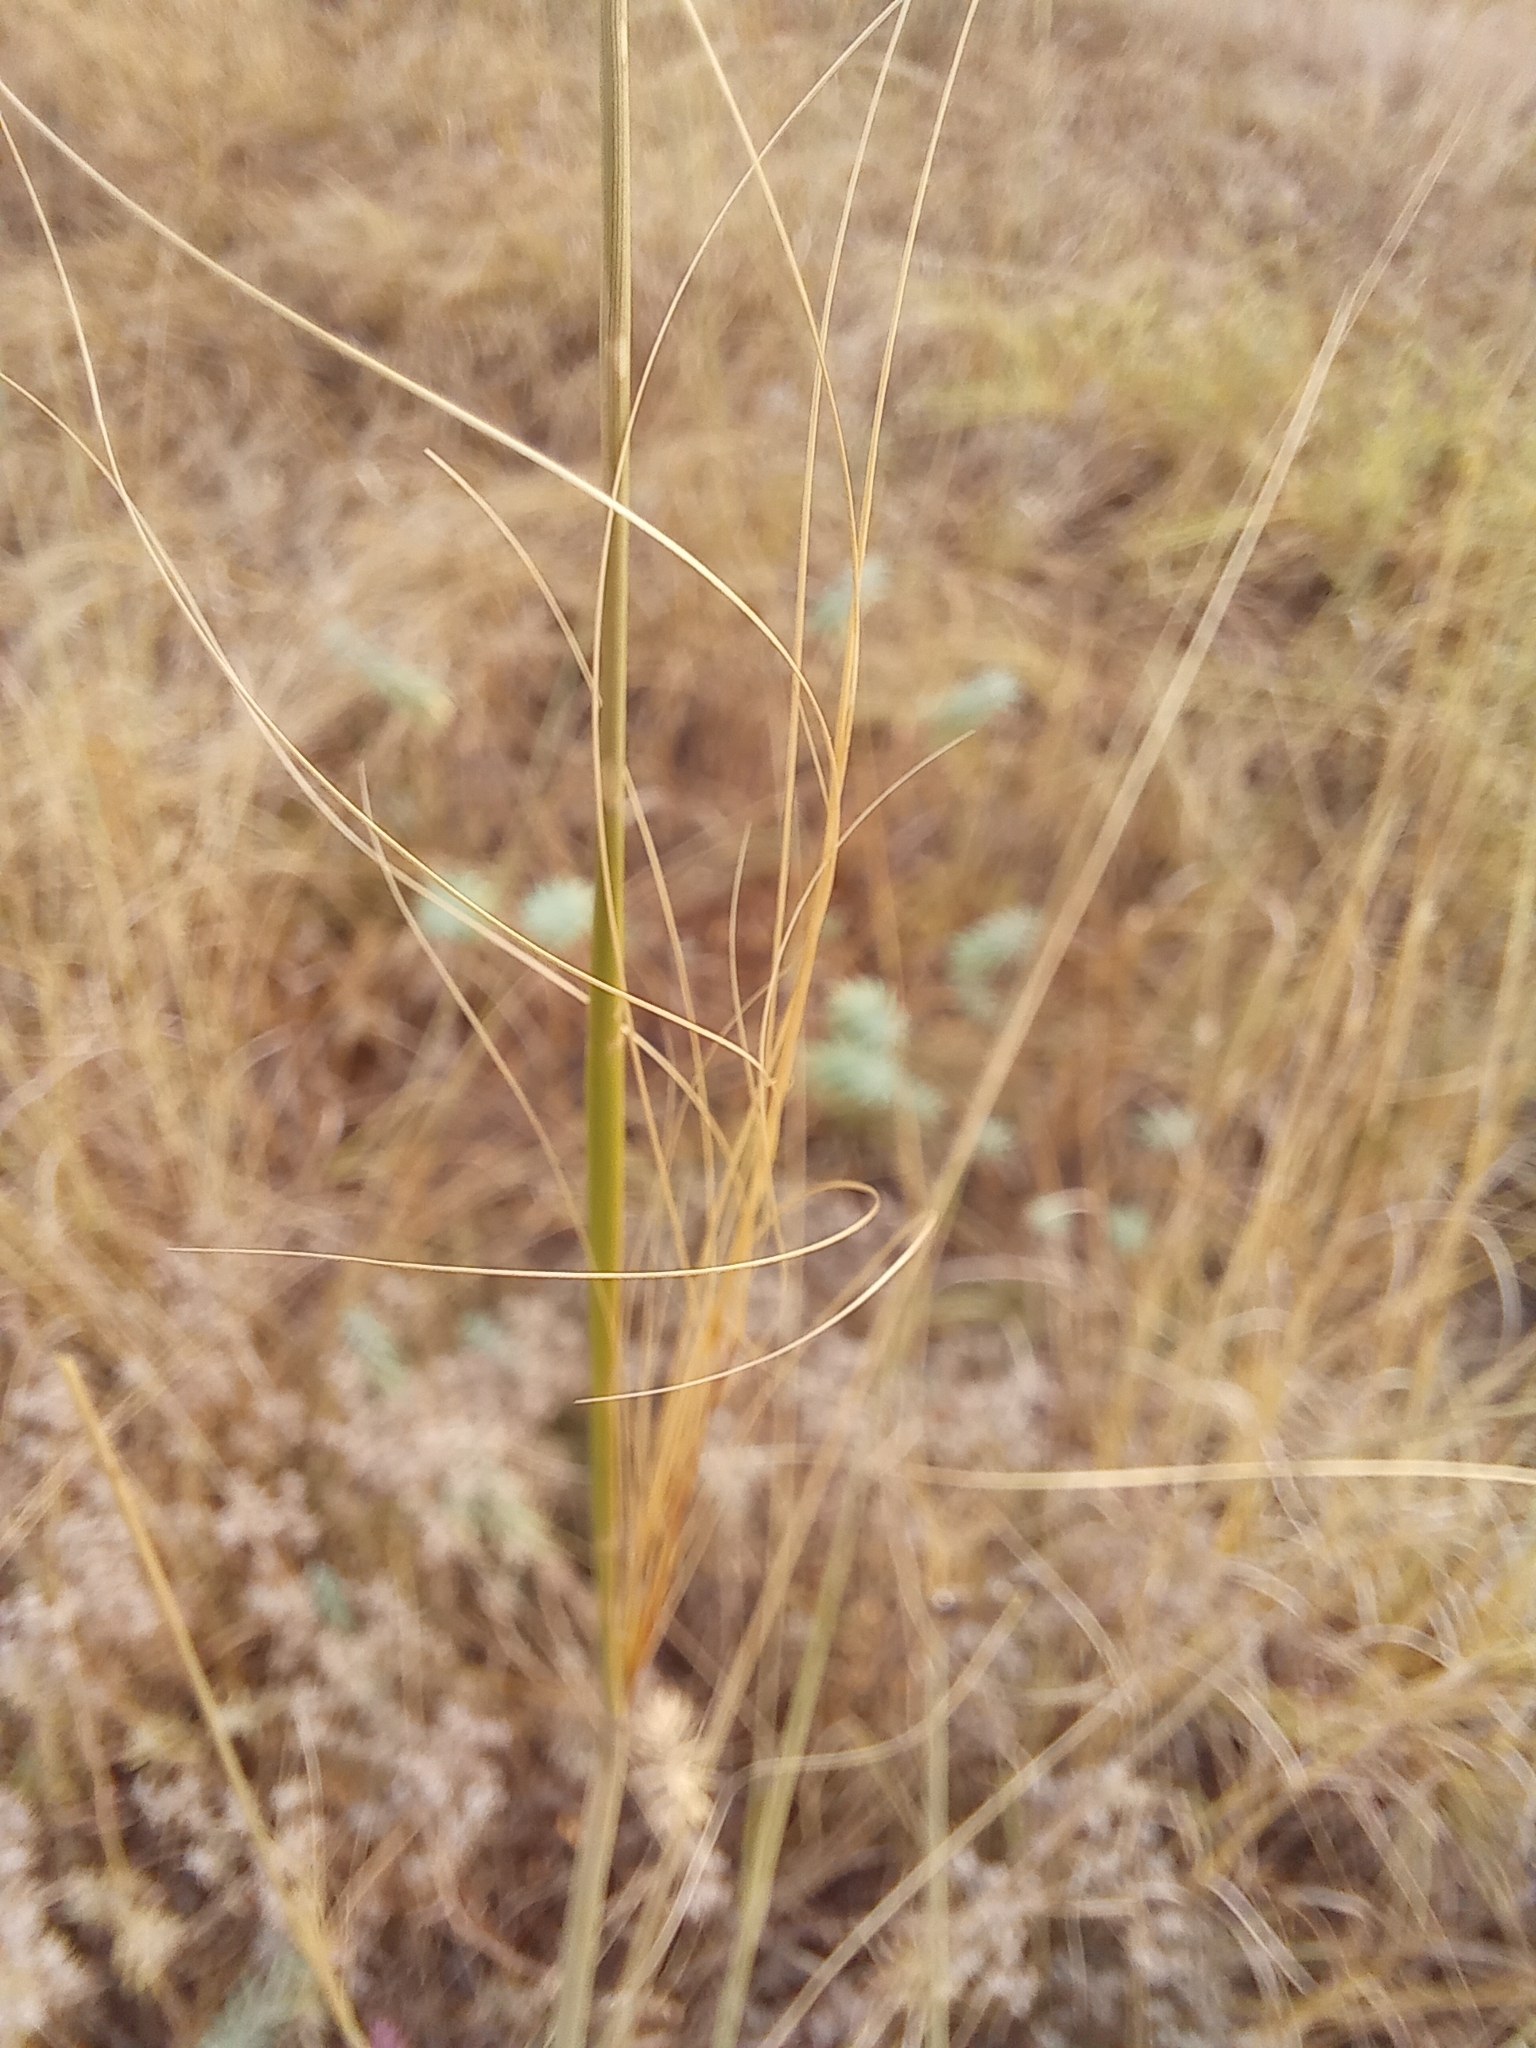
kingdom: Plantae
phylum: Tracheophyta
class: Liliopsida
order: Poales
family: Poaceae
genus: Stipa
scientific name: Stipa capillata
